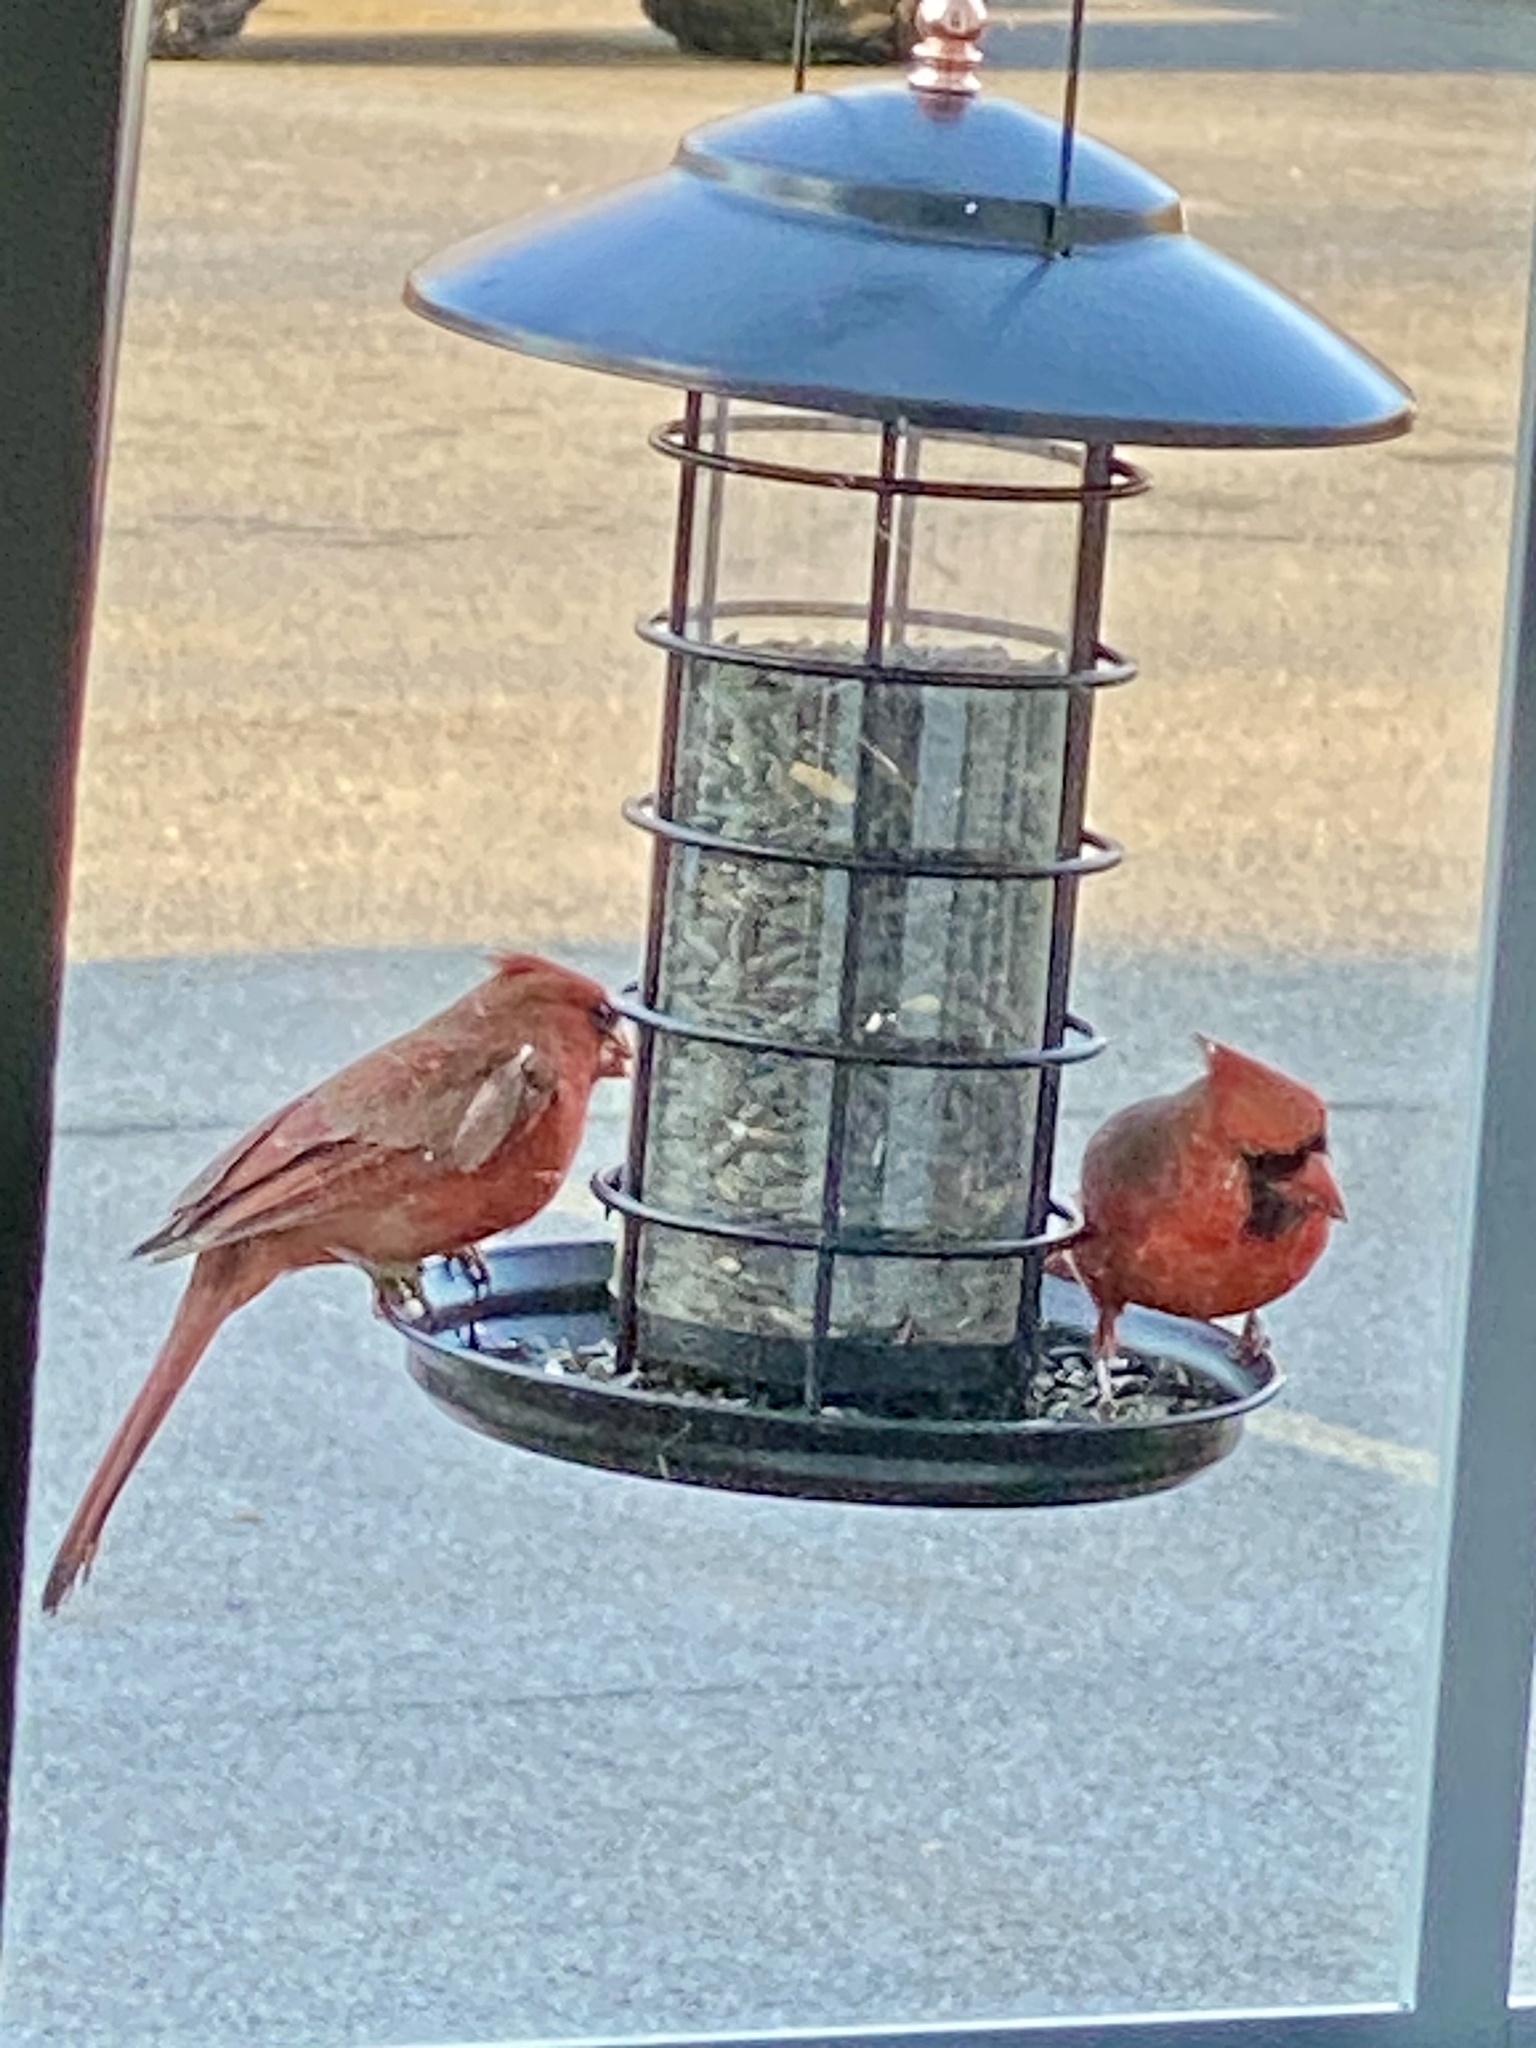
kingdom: Animalia
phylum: Chordata
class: Aves
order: Passeriformes
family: Cardinalidae
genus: Cardinalis
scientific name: Cardinalis cardinalis
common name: Northern cardinal
